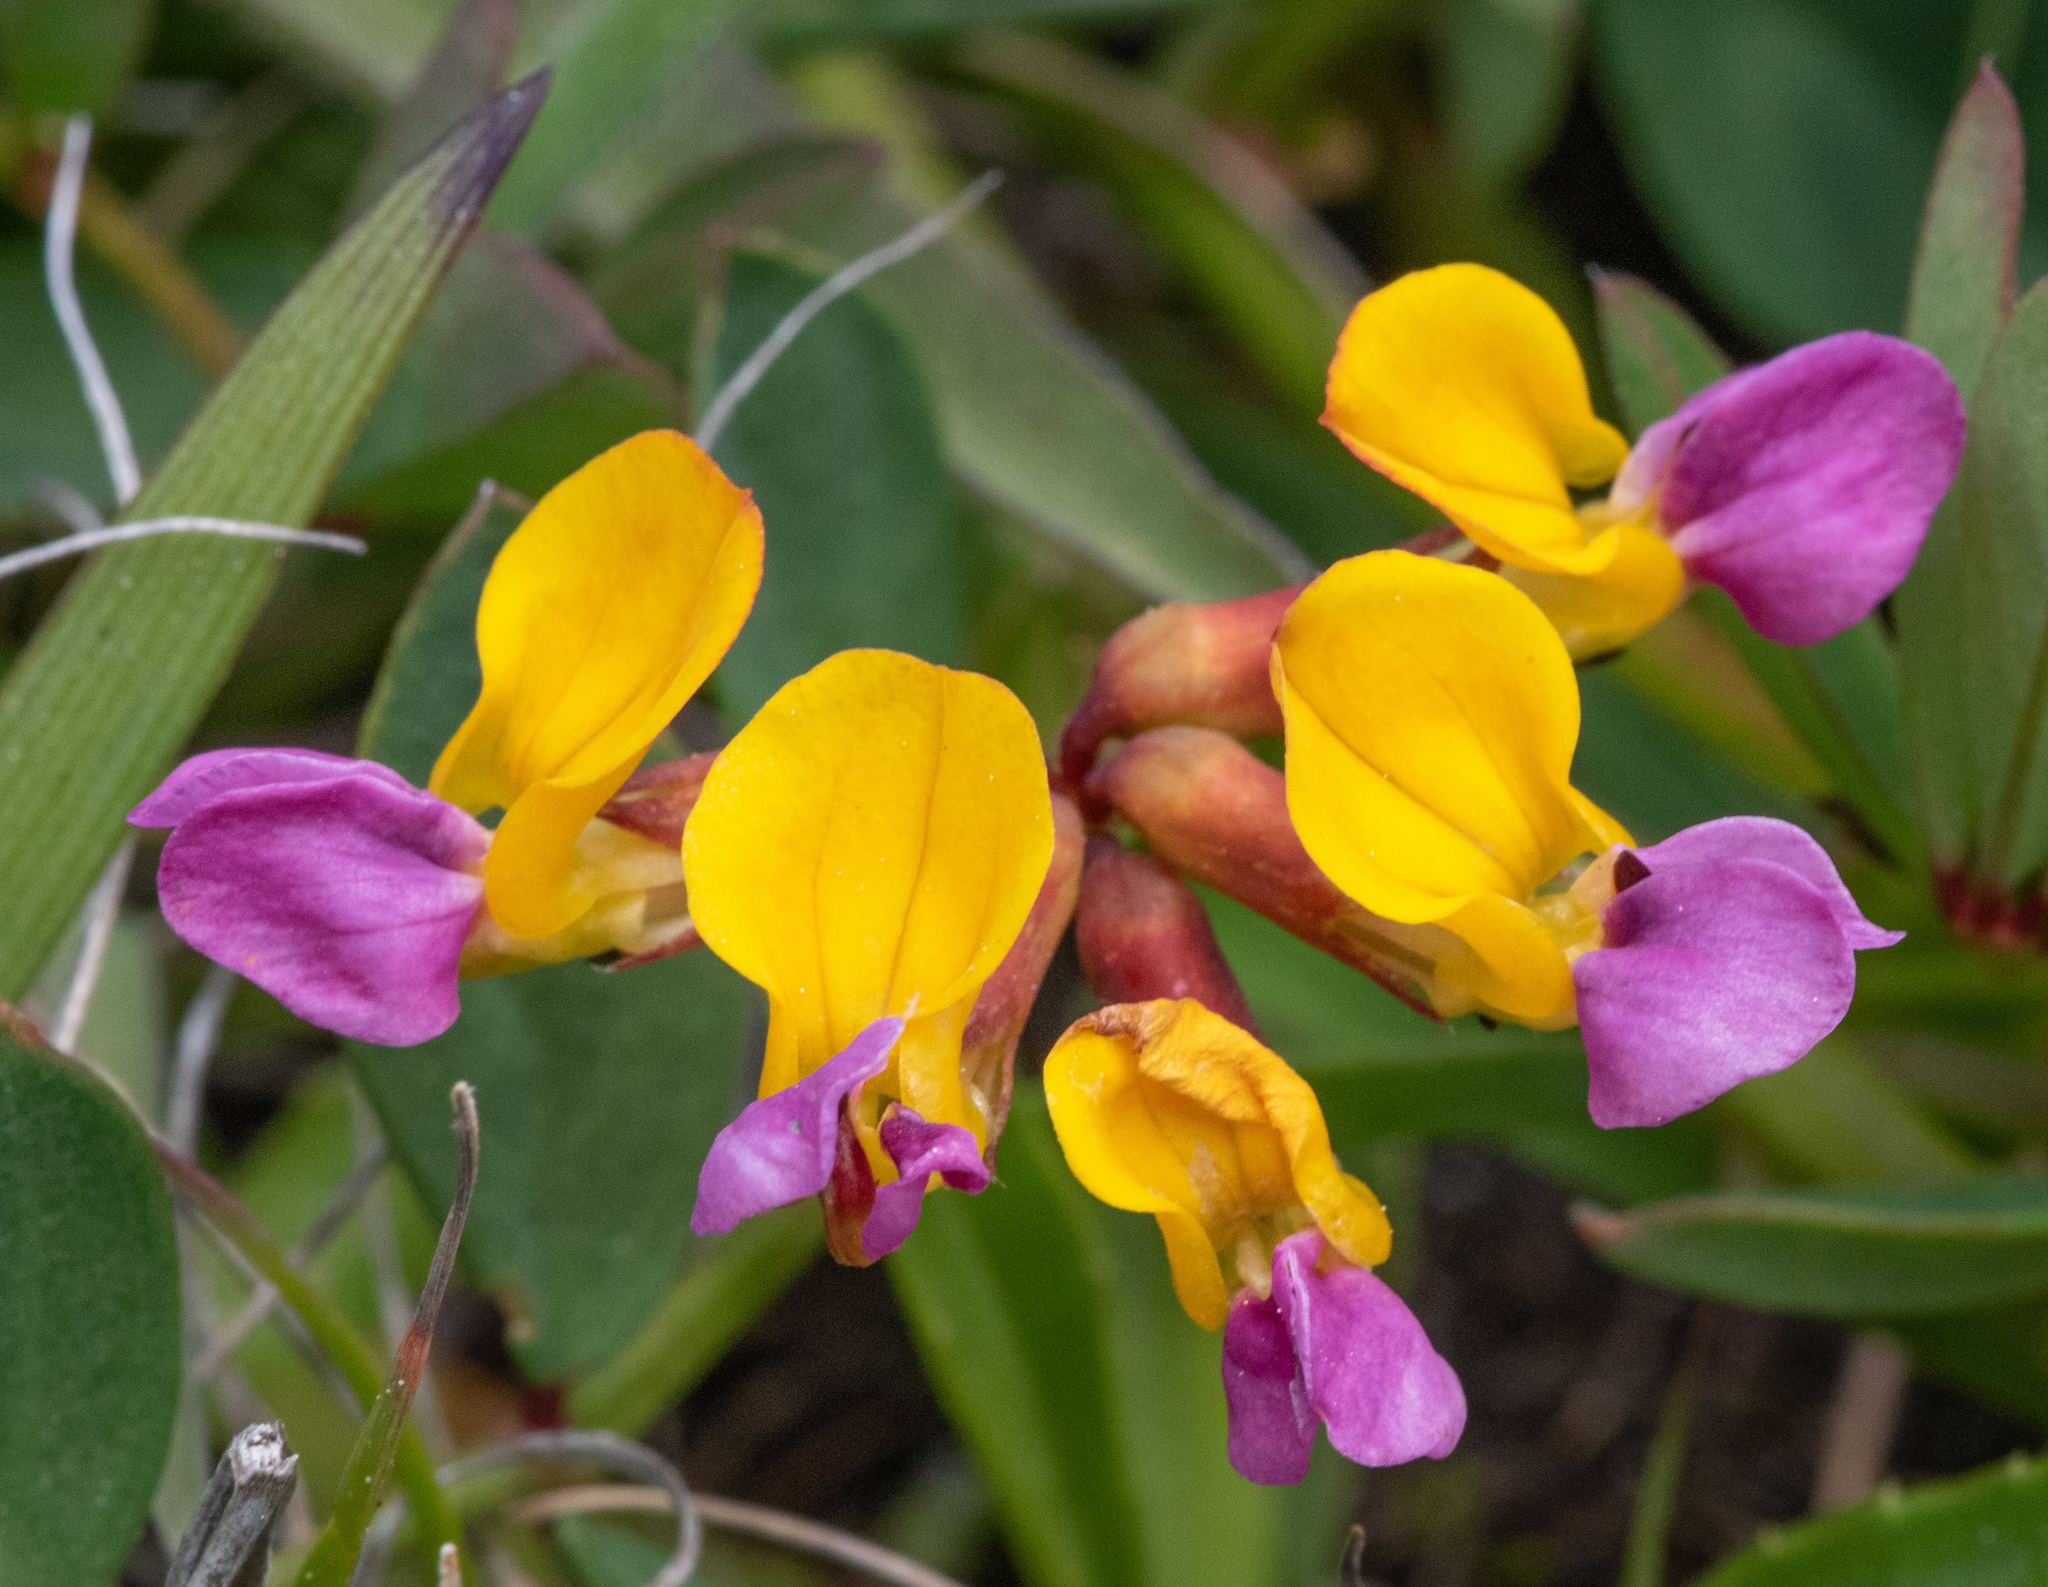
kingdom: Plantae
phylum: Tracheophyta
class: Magnoliopsida
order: Fabales
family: Fabaceae
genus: Hosackia
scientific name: Hosackia gracilis
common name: Seaside bird's-foot lotus
